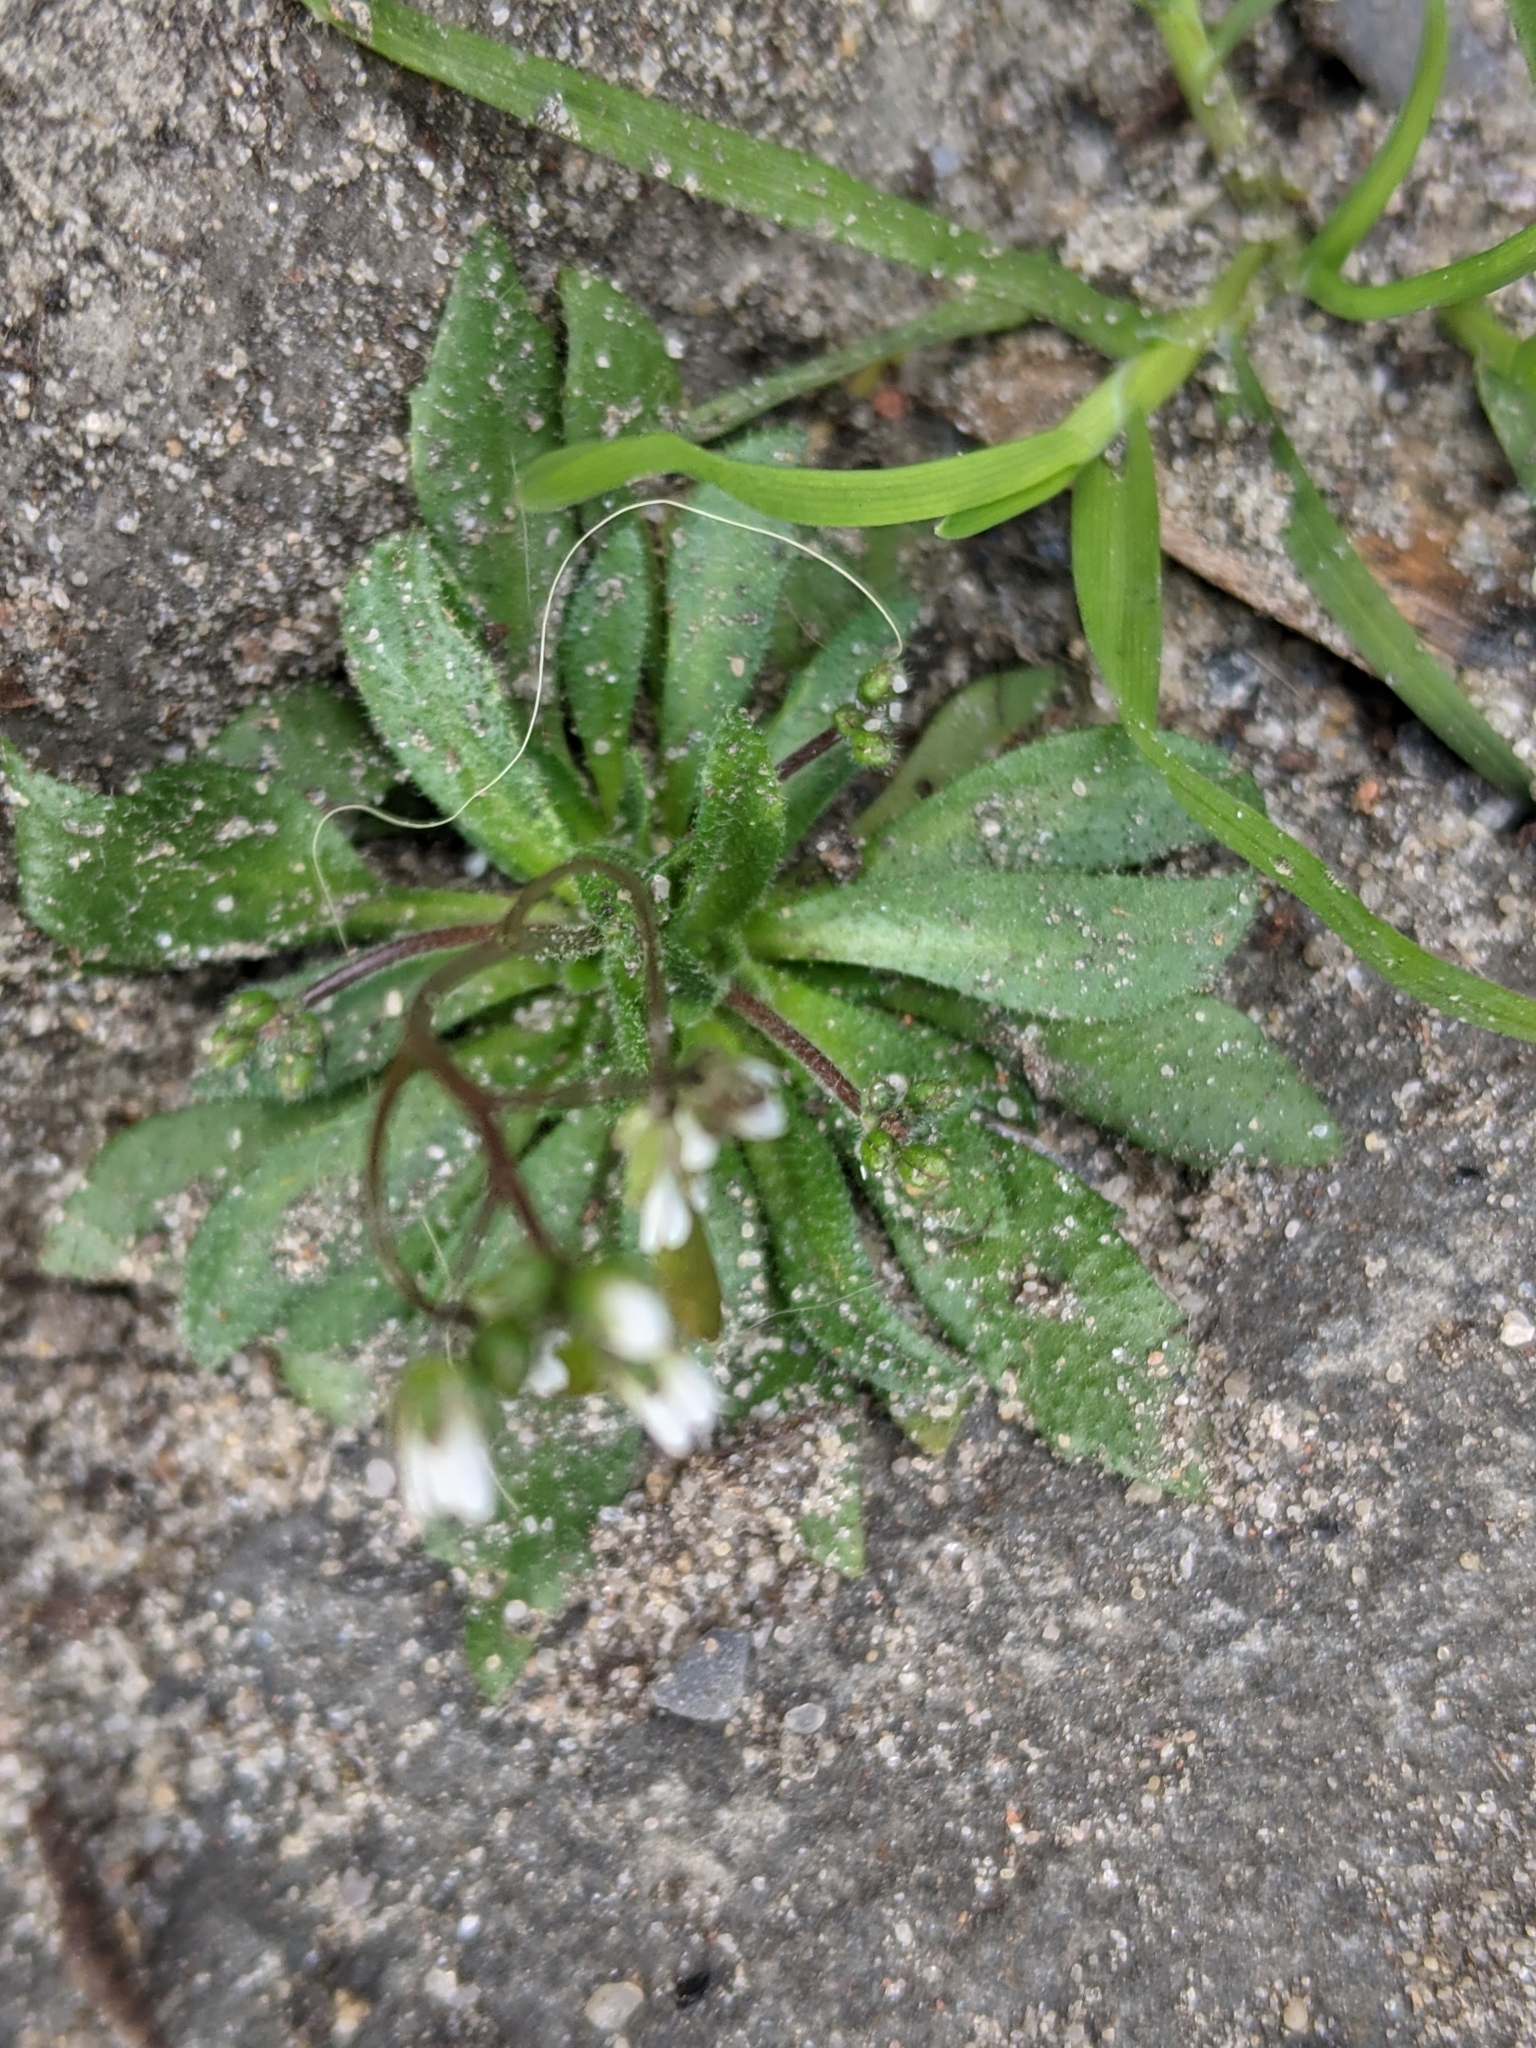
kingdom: Plantae
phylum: Tracheophyta
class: Magnoliopsida
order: Brassicales
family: Brassicaceae
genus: Draba
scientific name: Draba verna
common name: Spring draba
